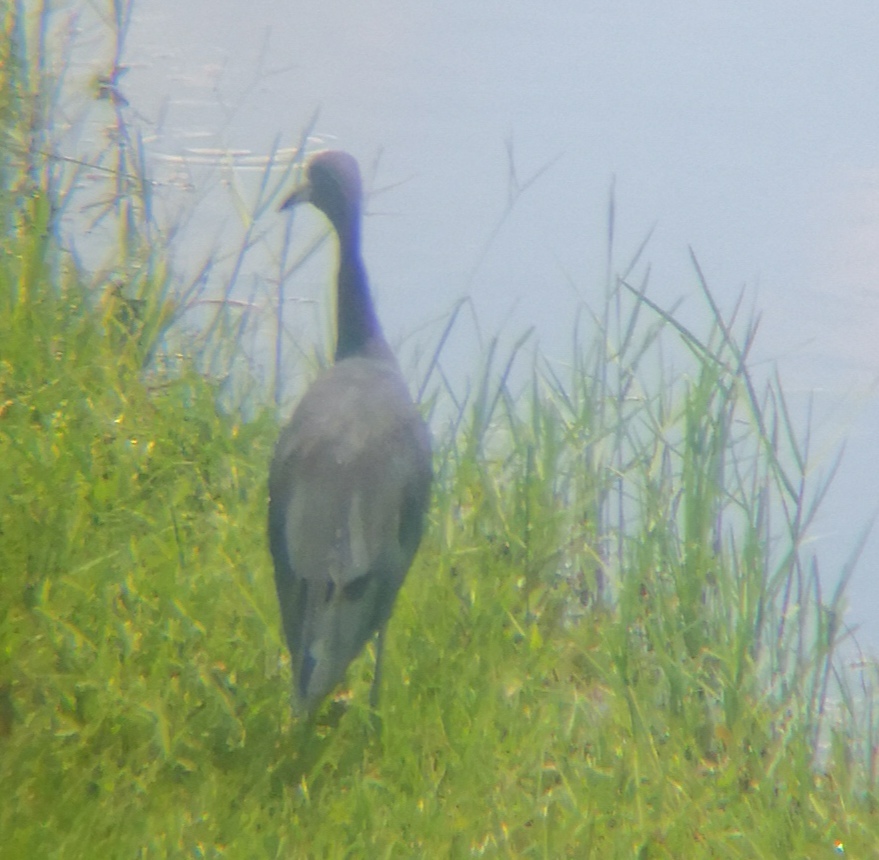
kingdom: Animalia
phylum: Chordata
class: Aves
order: Pelecaniformes
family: Ardeidae
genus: Egretta
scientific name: Egretta caerulea
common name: Little blue heron
